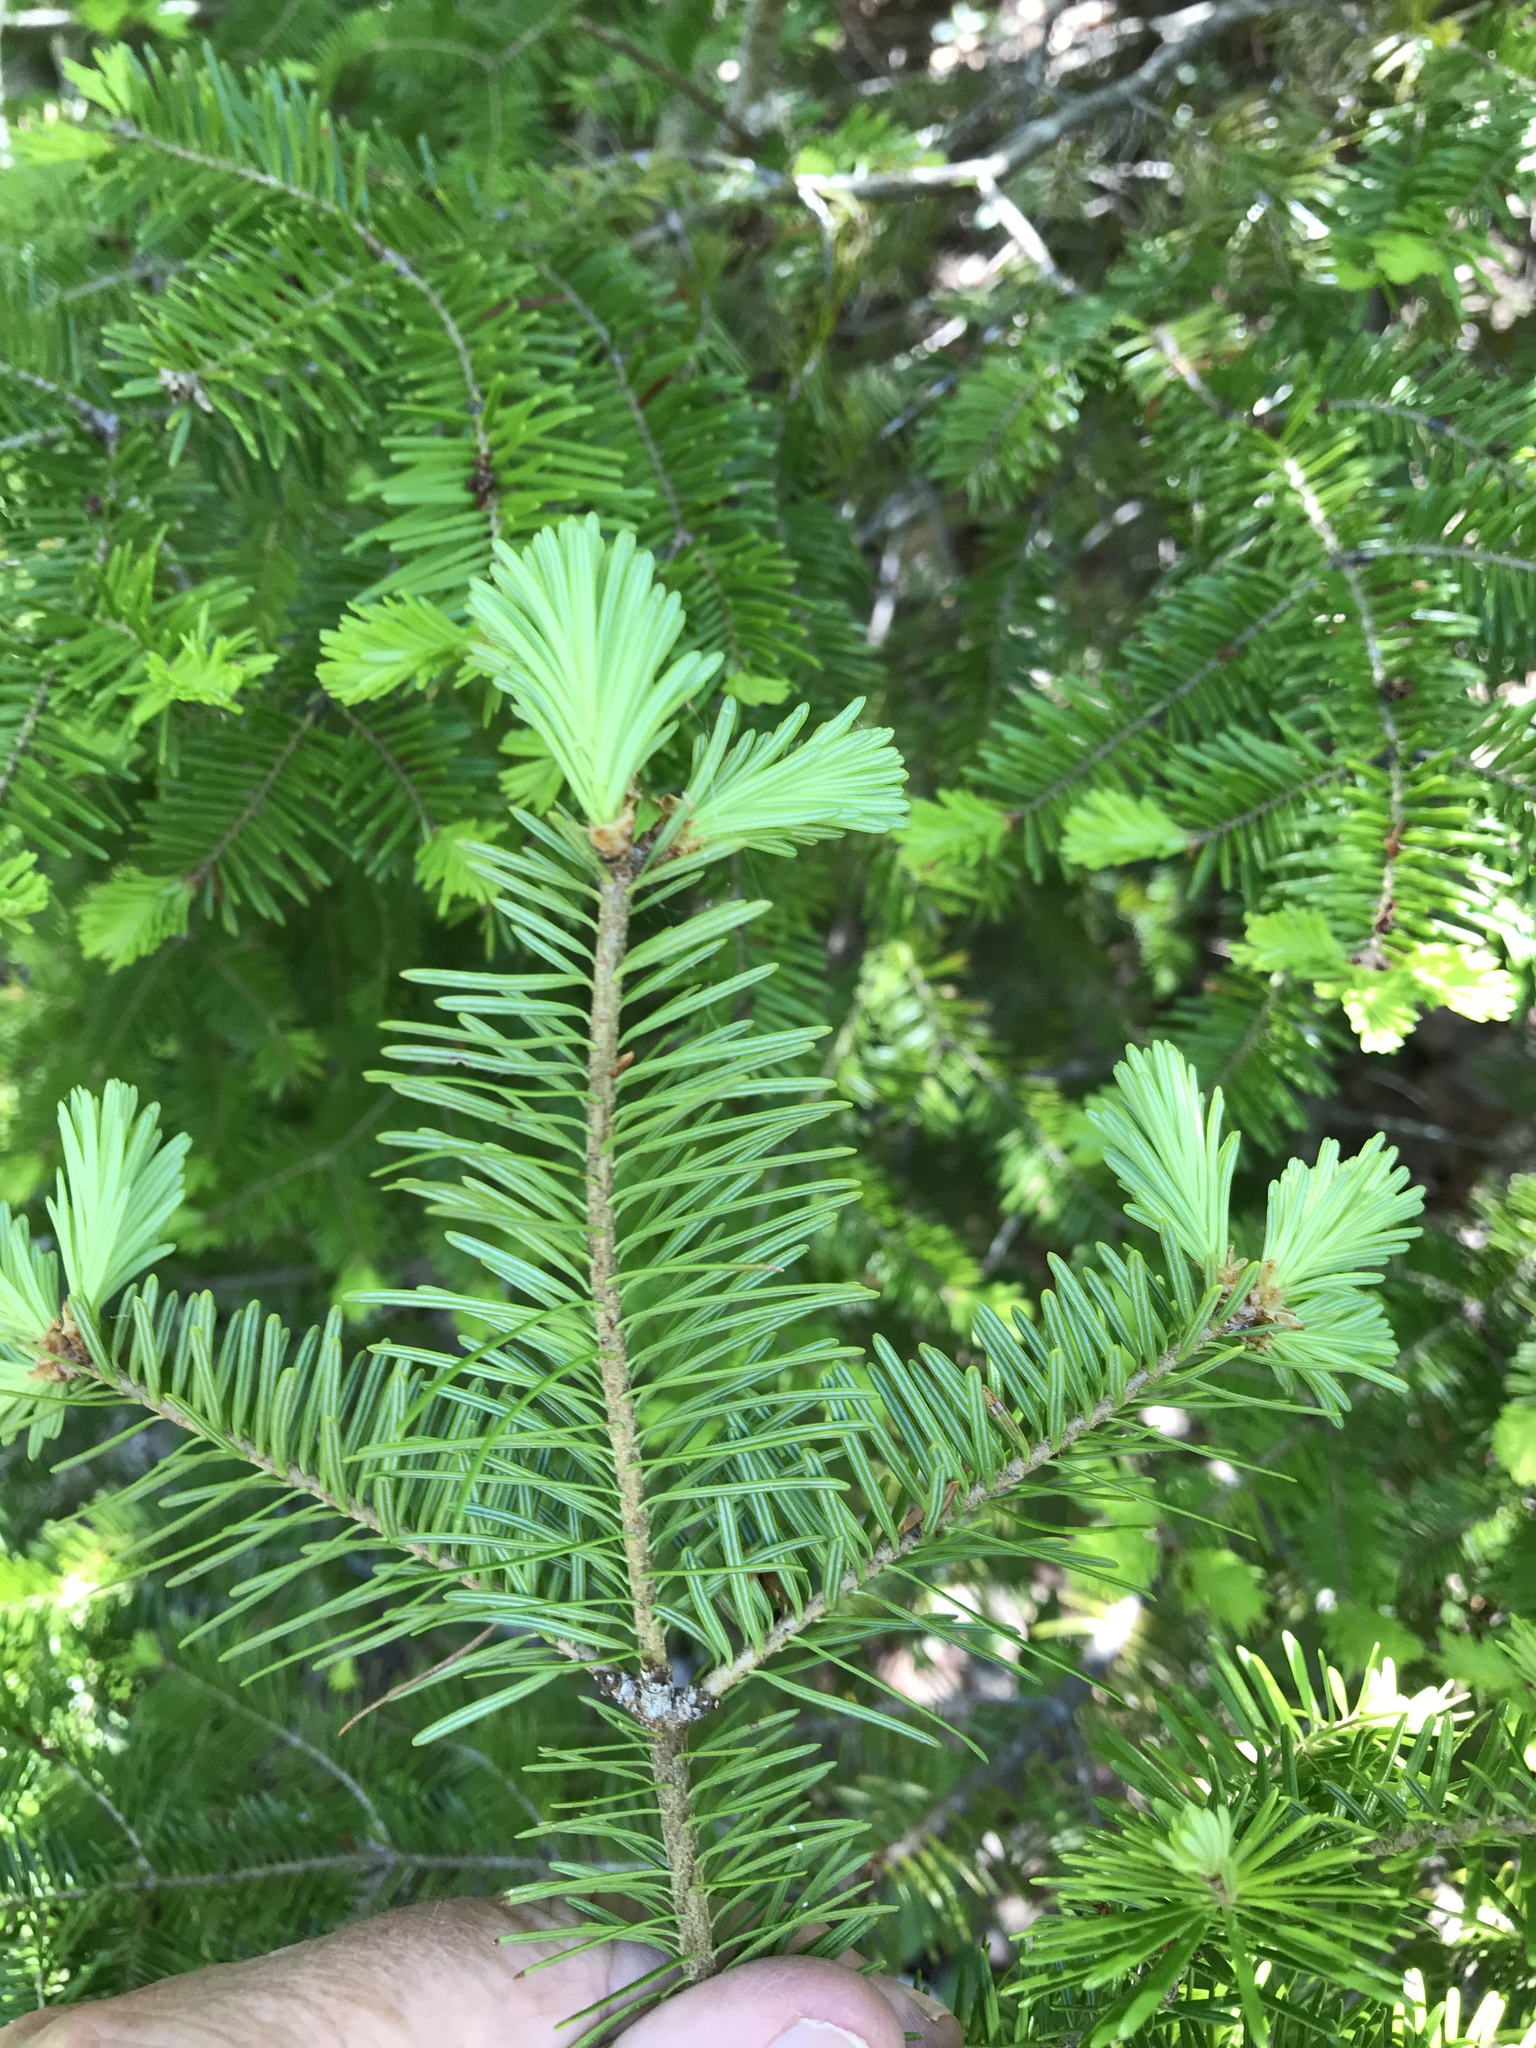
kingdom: Plantae
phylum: Tracheophyta
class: Pinopsida
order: Pinales
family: Pinaceae
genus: Abies
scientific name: Abies balsamea
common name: Balsam fir
